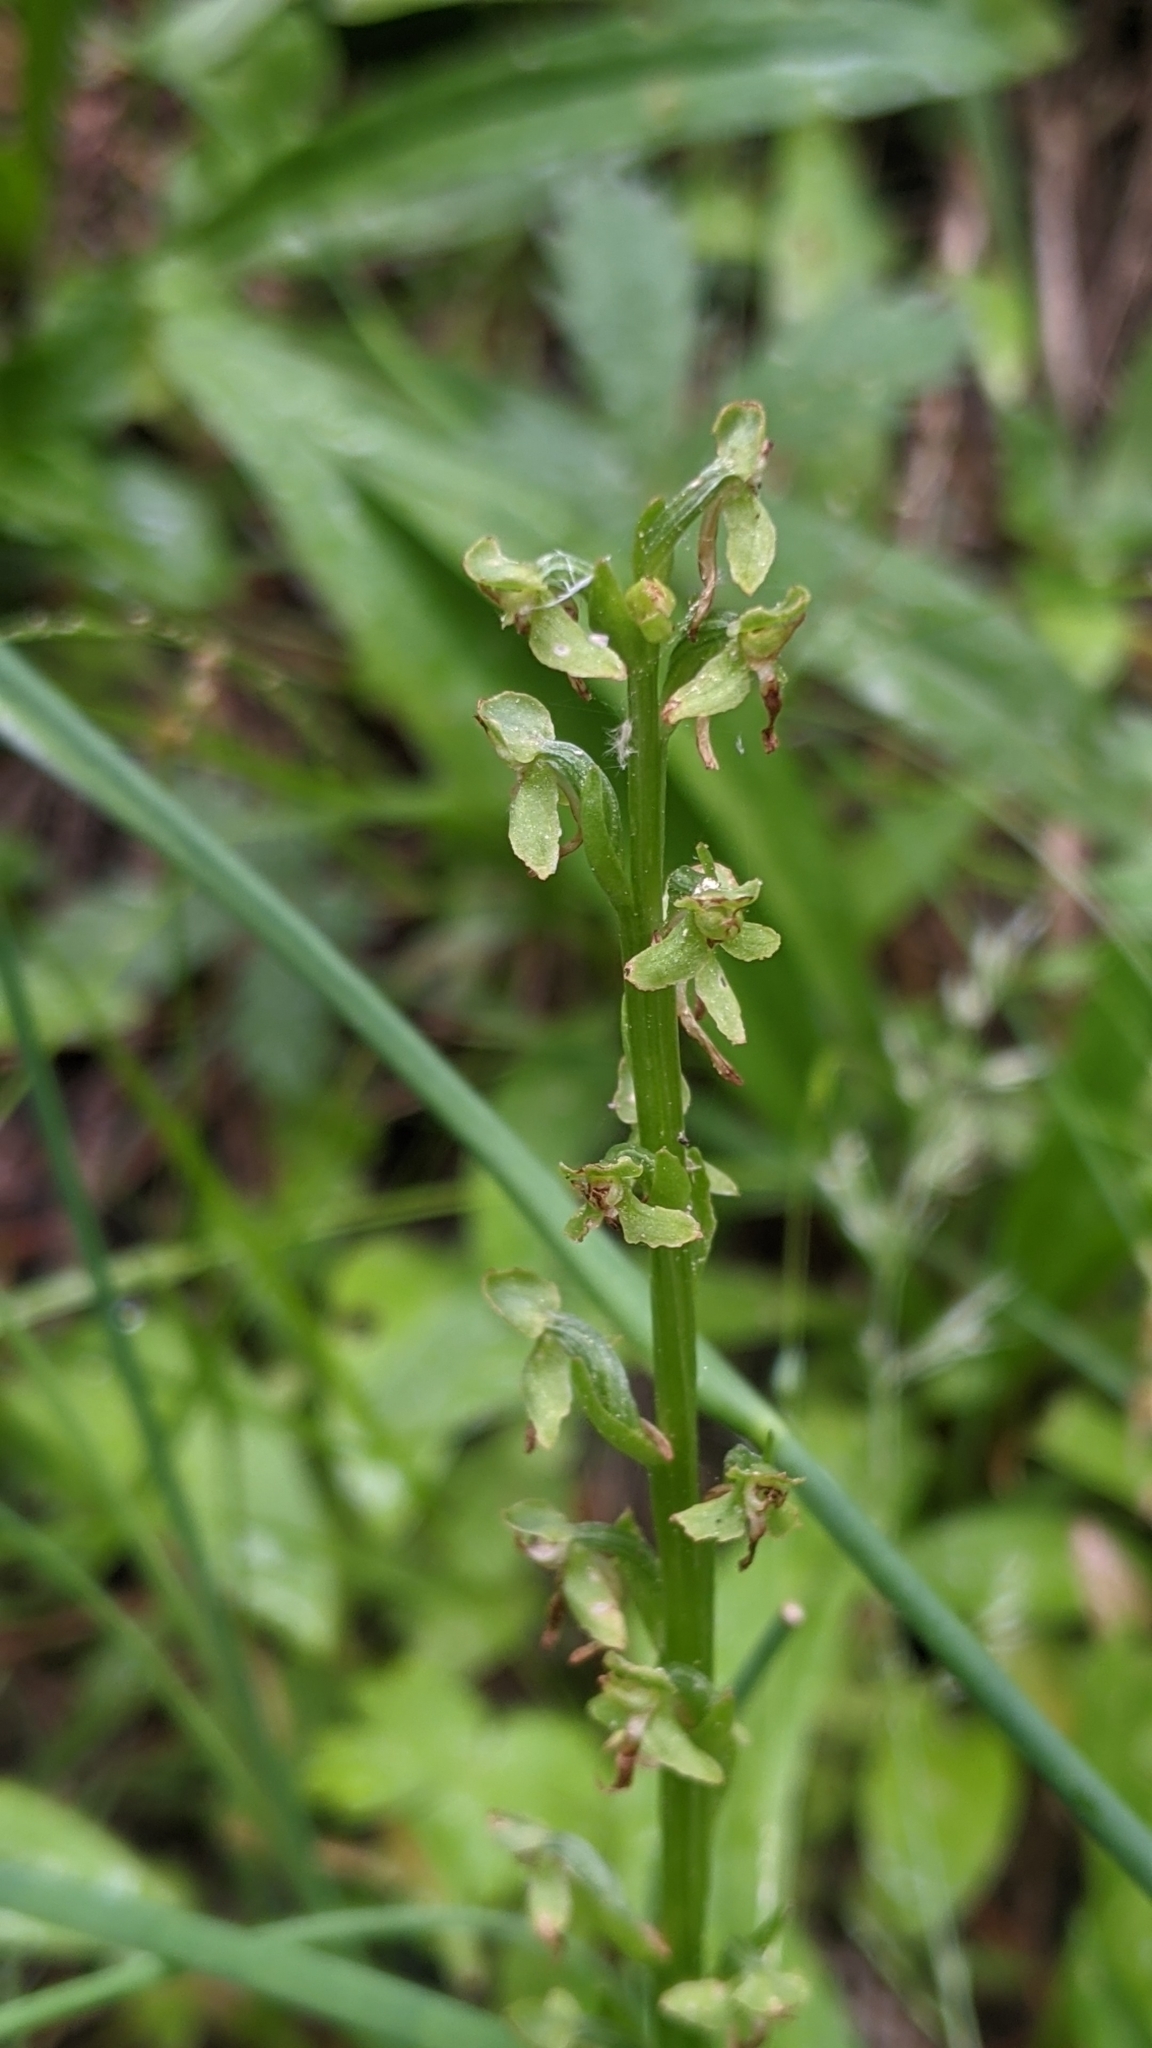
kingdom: Plantae
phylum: Tracheophyta
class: Liliopsida
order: Asparagales
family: Orchidaceae
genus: Platanthera
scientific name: Platanthera sparsiflora
